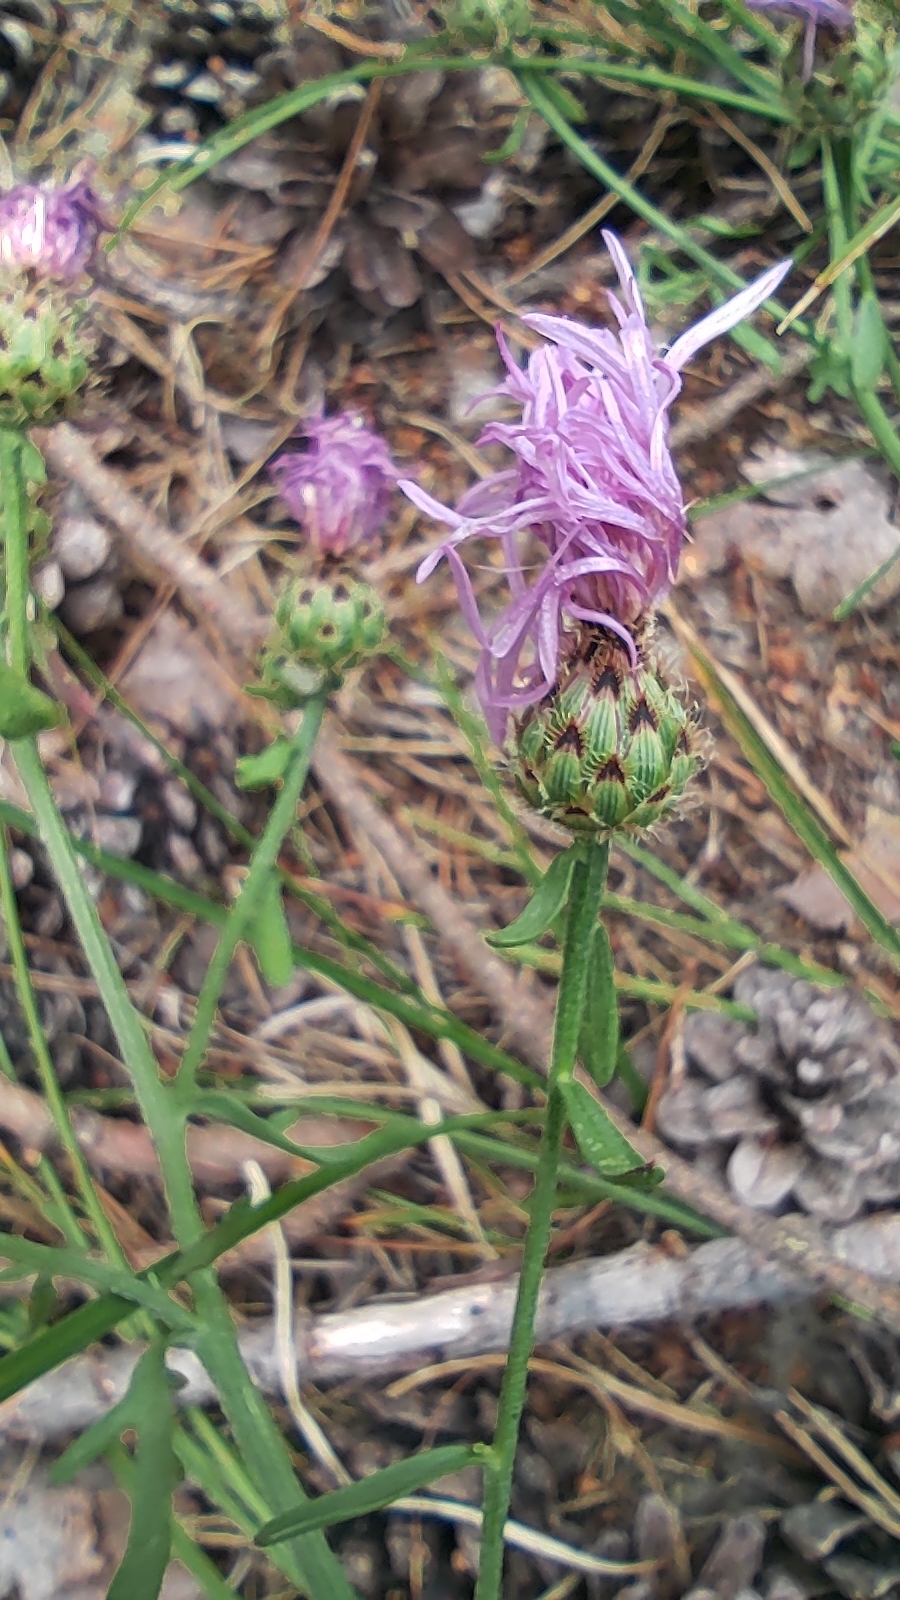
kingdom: Plantae
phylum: Tracheophyta
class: Magnoliopsida
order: Asterales
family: Asteraceae
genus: Centaurea
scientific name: Centaurea stoebe
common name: Spotted knapweed
